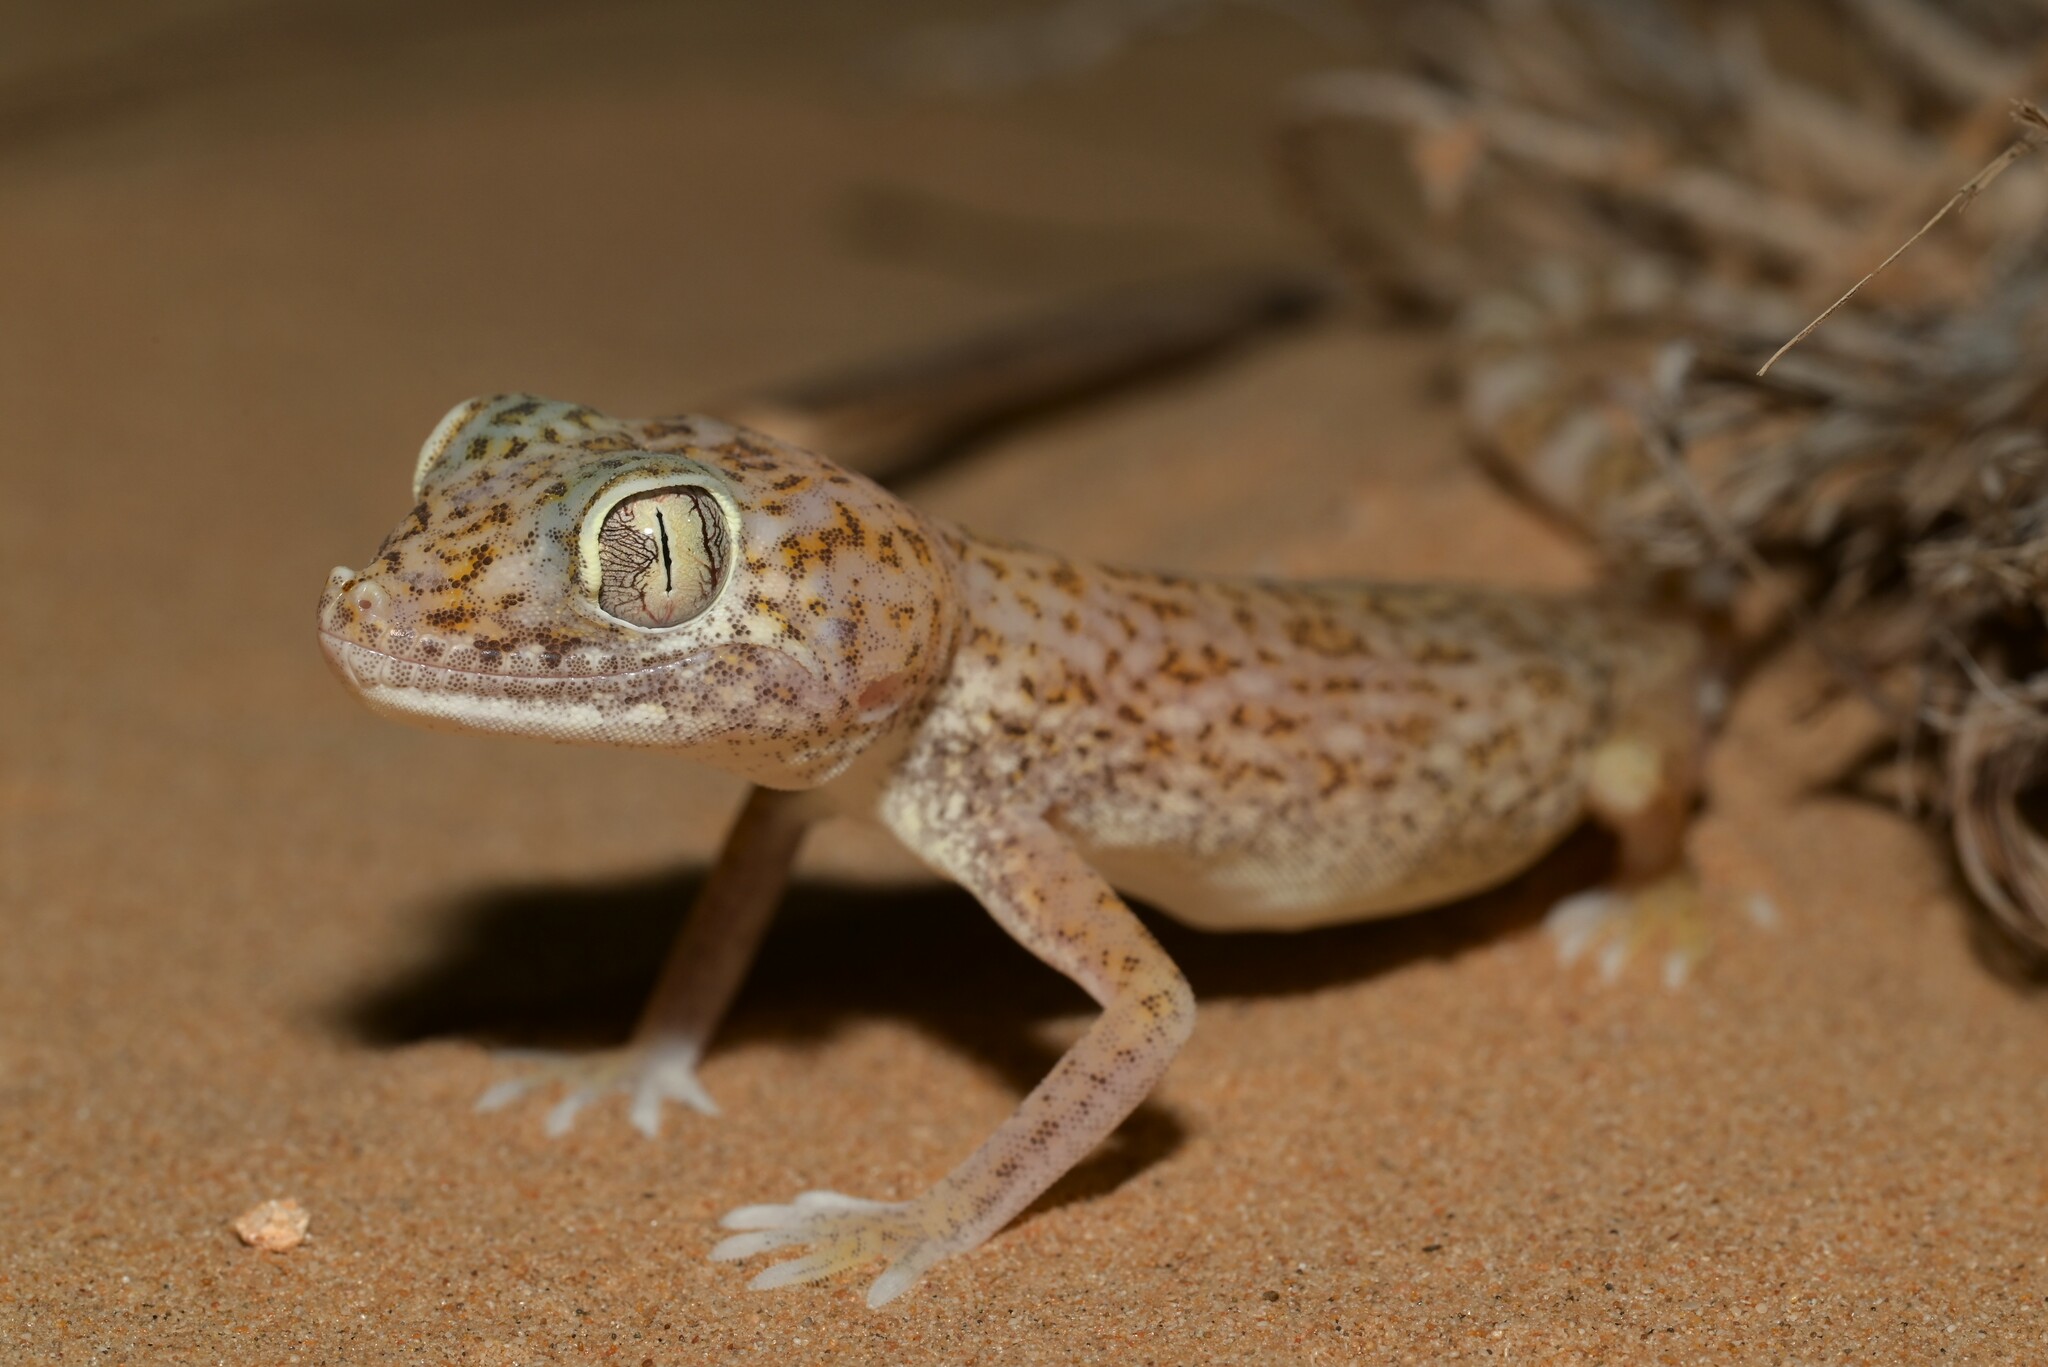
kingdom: Animalia
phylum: Chordata
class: Squamata
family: Gekkonidae
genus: Stenodactylus
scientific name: Stenodactylus doriae
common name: Dune sand gecko
